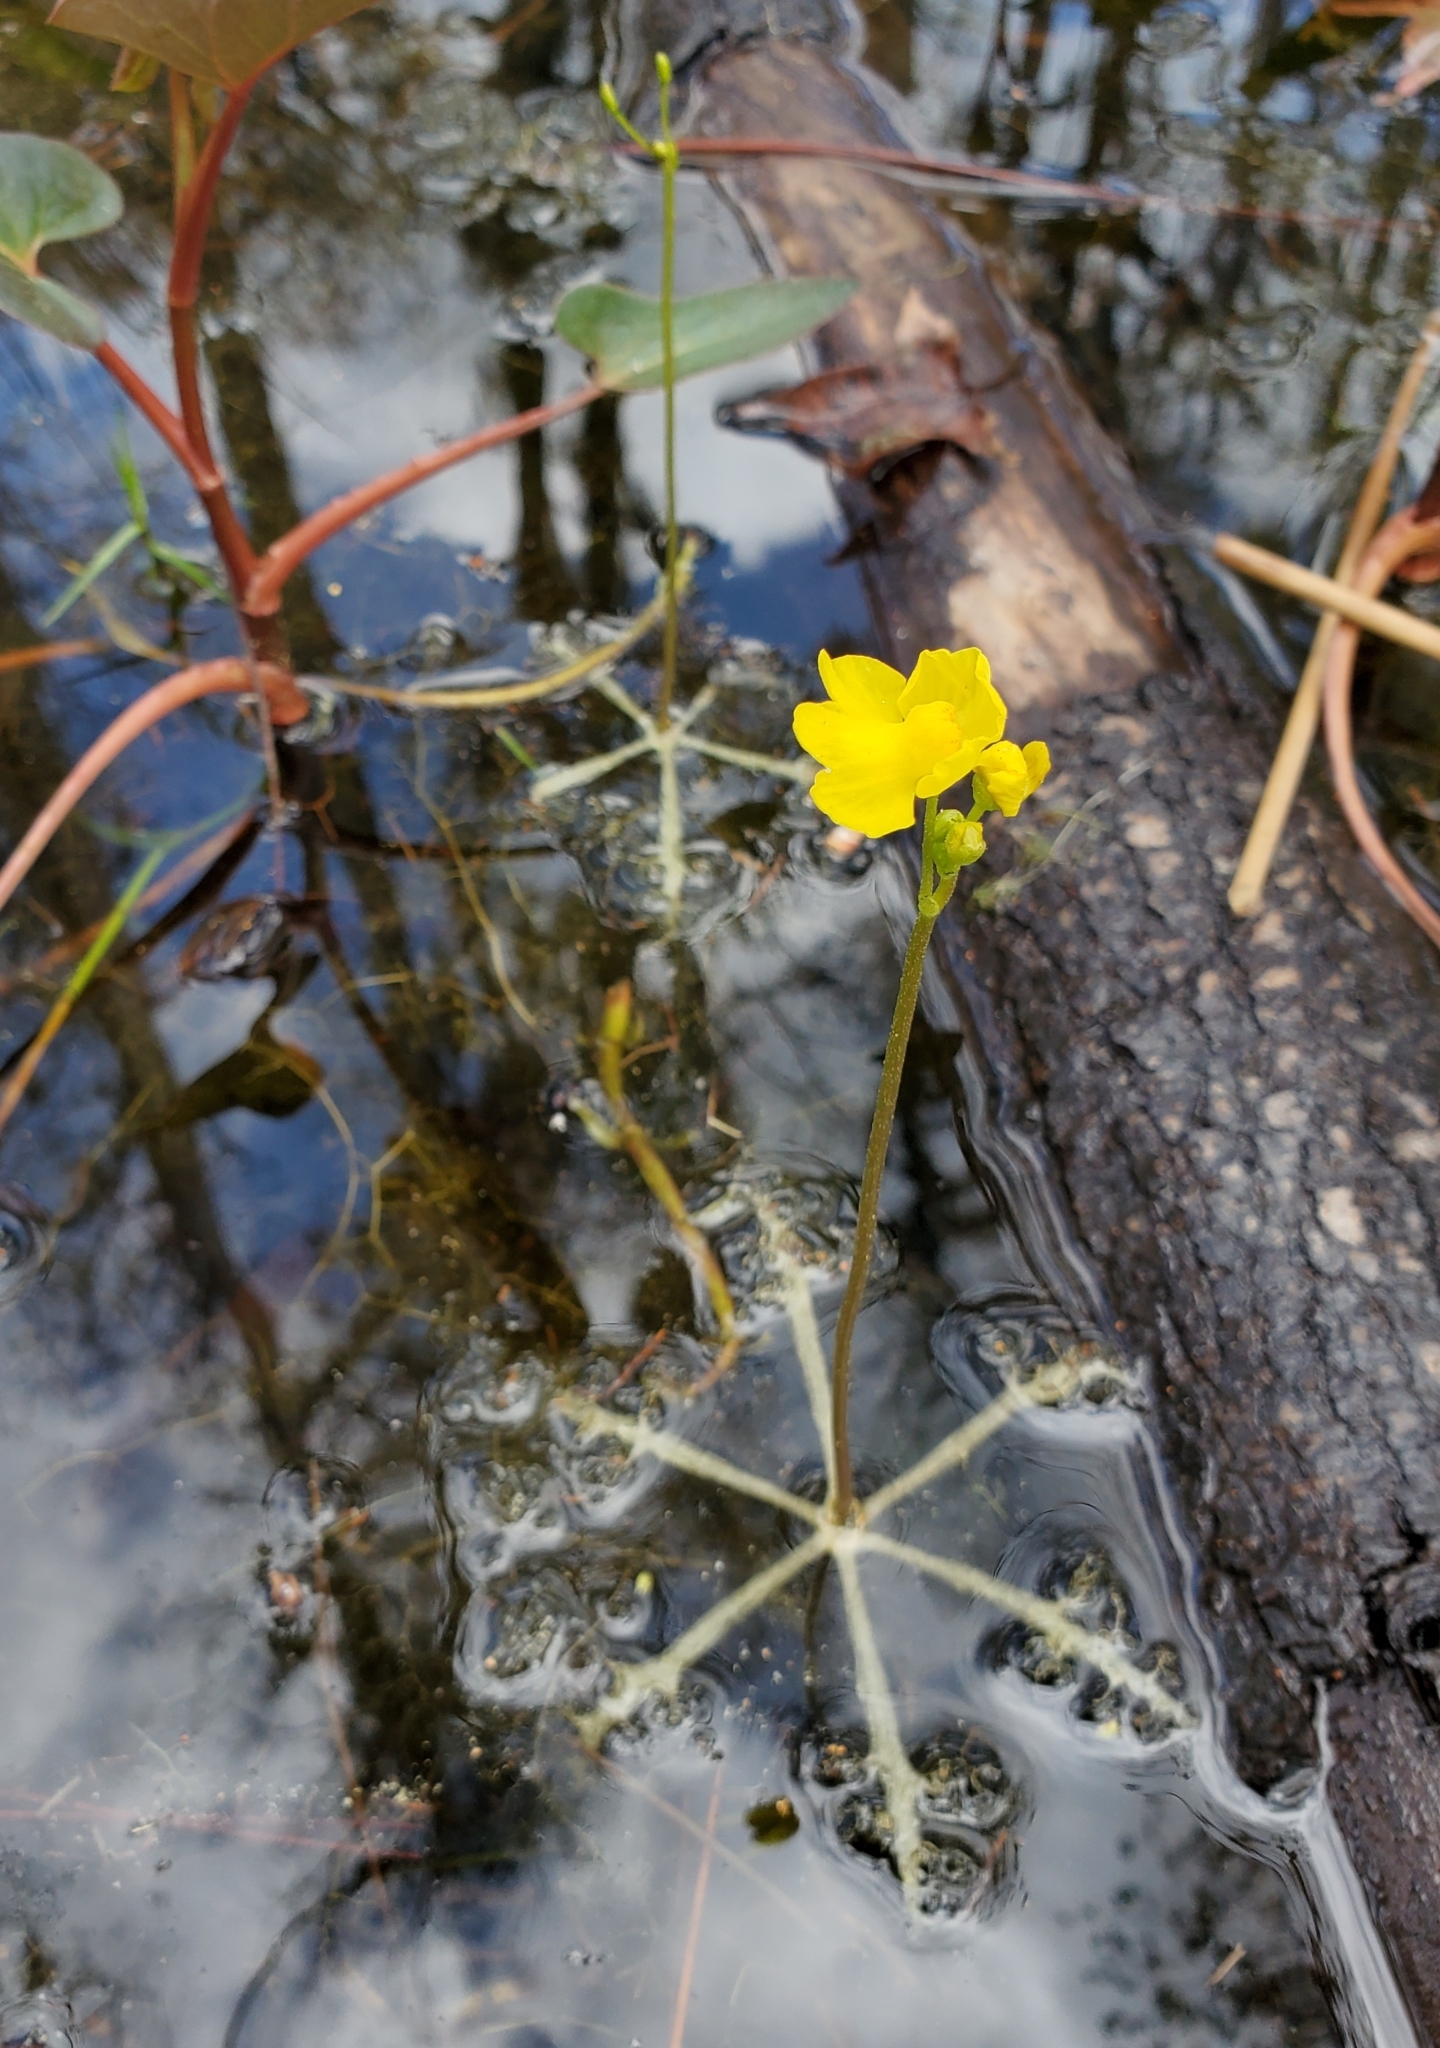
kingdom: Plantae
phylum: Tracheophyta
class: Magnoliopsida
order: Lamiales
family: Lentibulariaceae
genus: Utricularia
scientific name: Utricularia inflata
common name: Floating bladderwort
